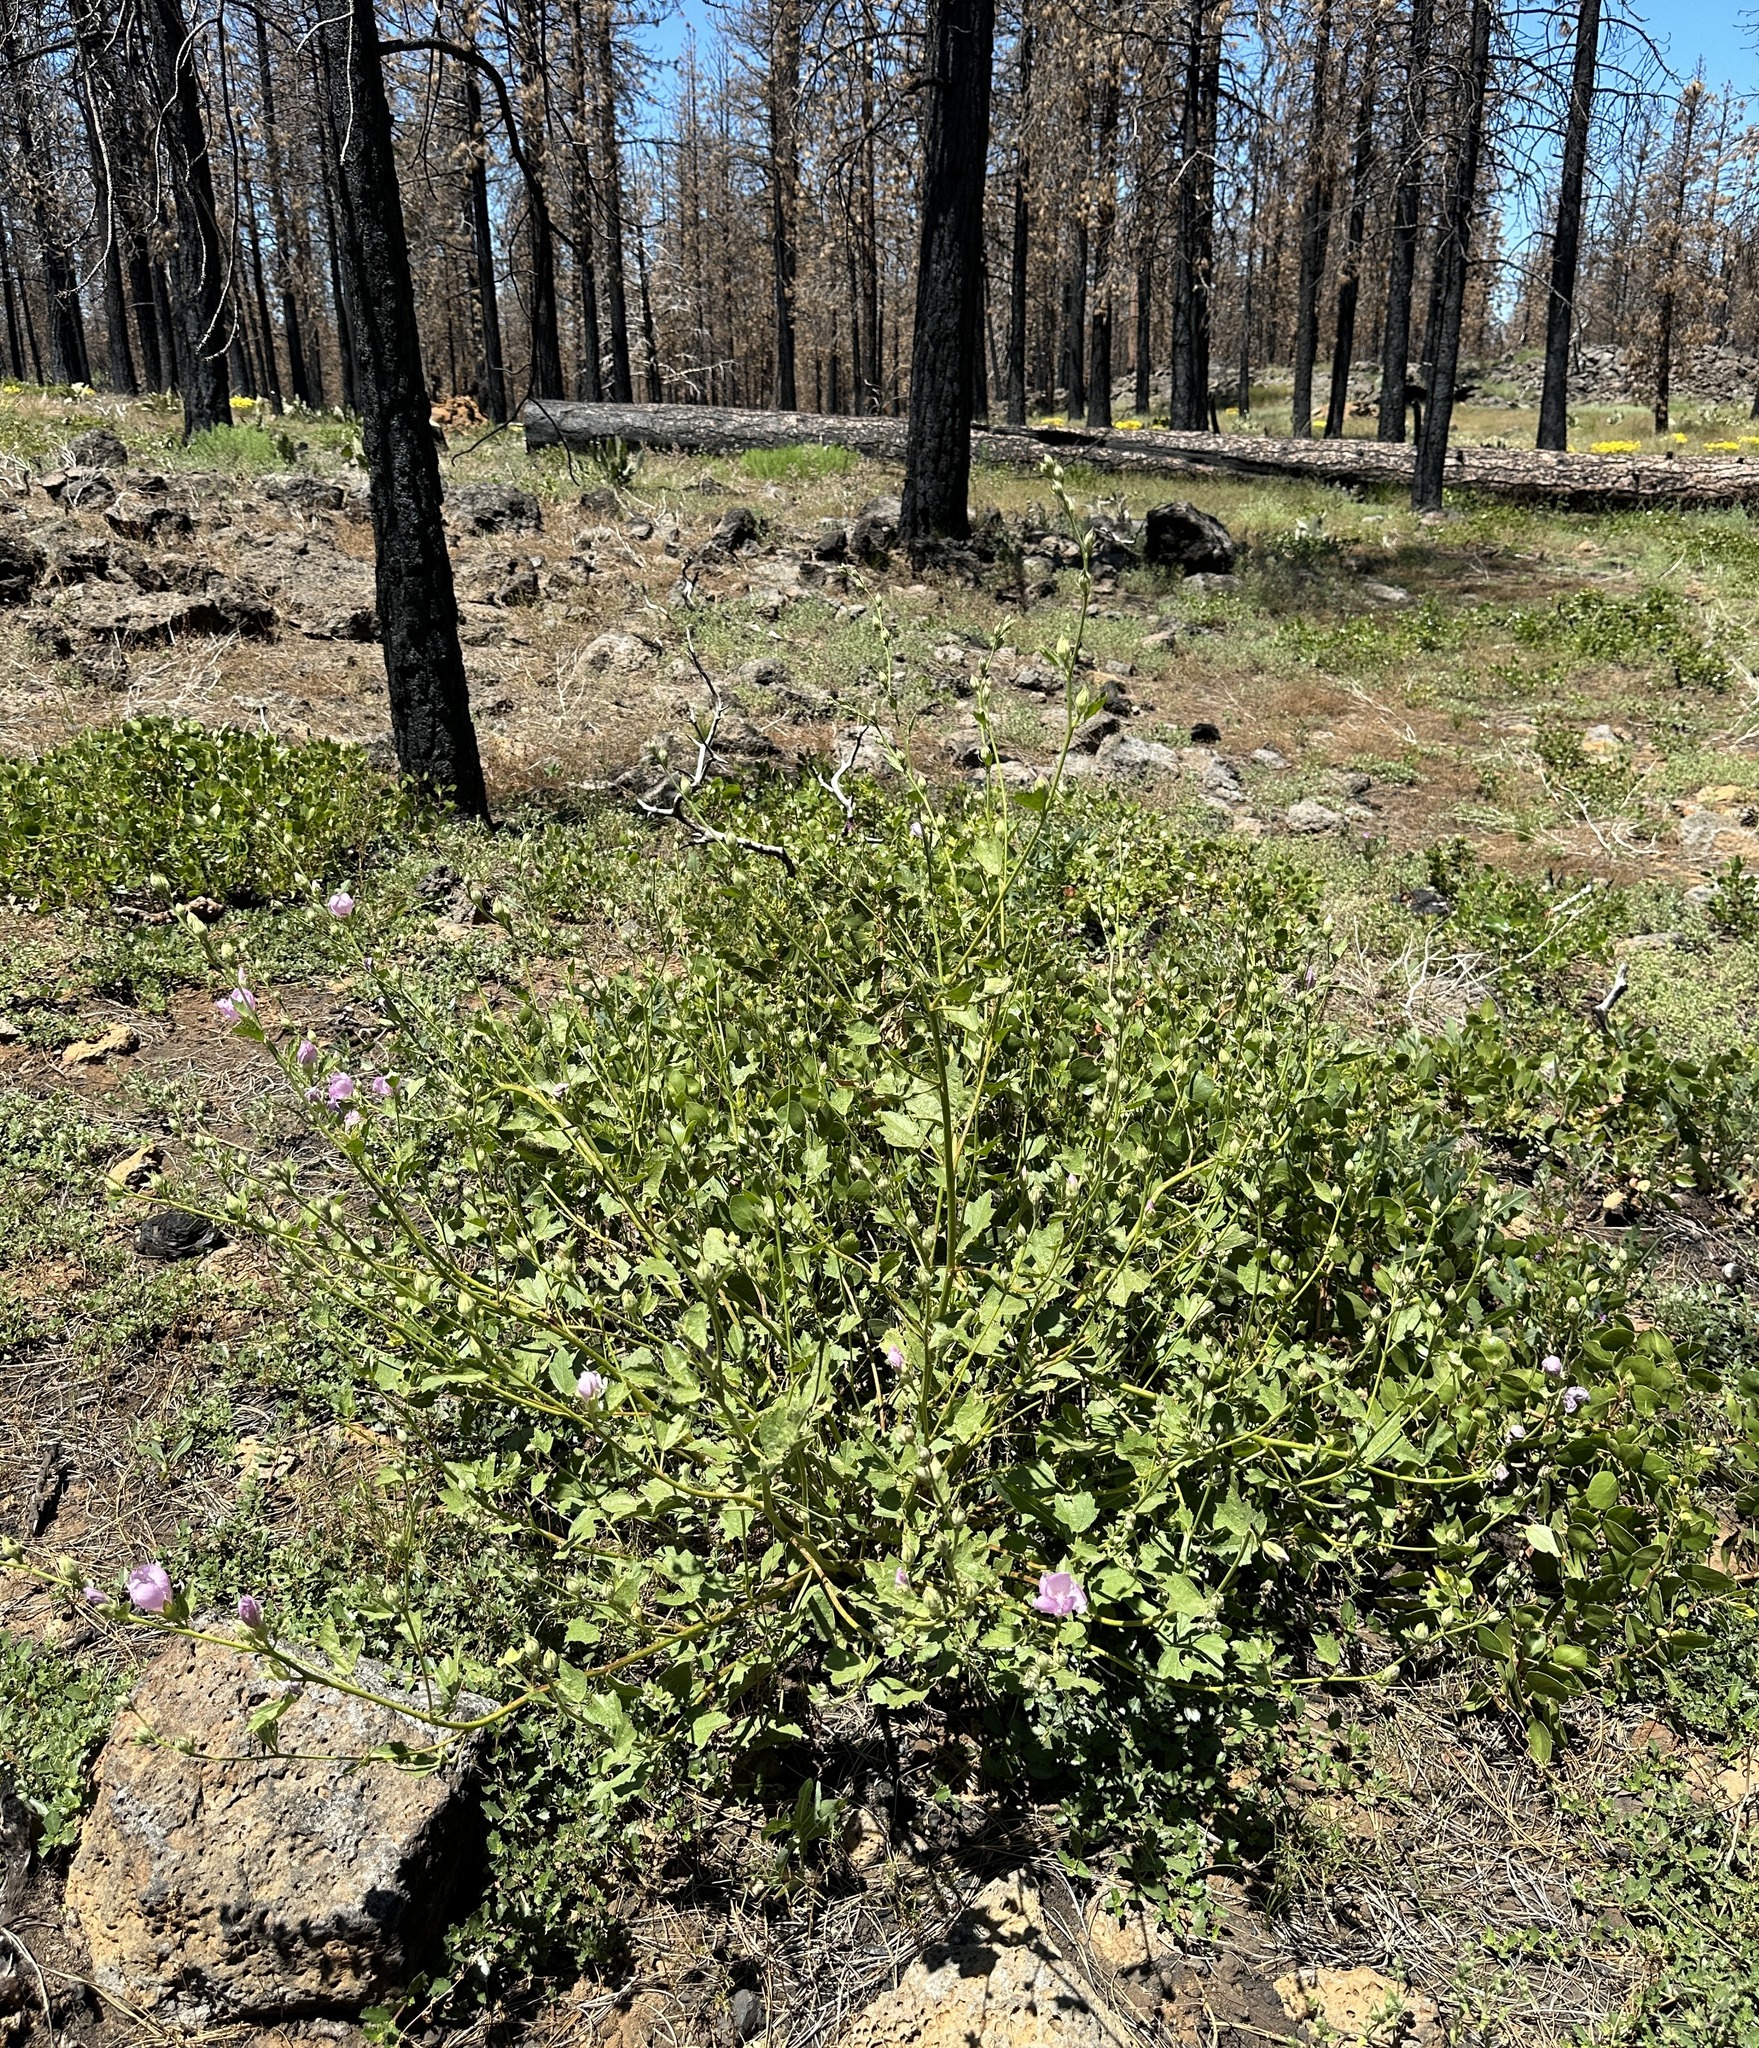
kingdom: Plantae
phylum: Tracheophyta
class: Magnoliopsida
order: Malvales
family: Malvaceae
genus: Iliamna
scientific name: Iliamna bakeri
